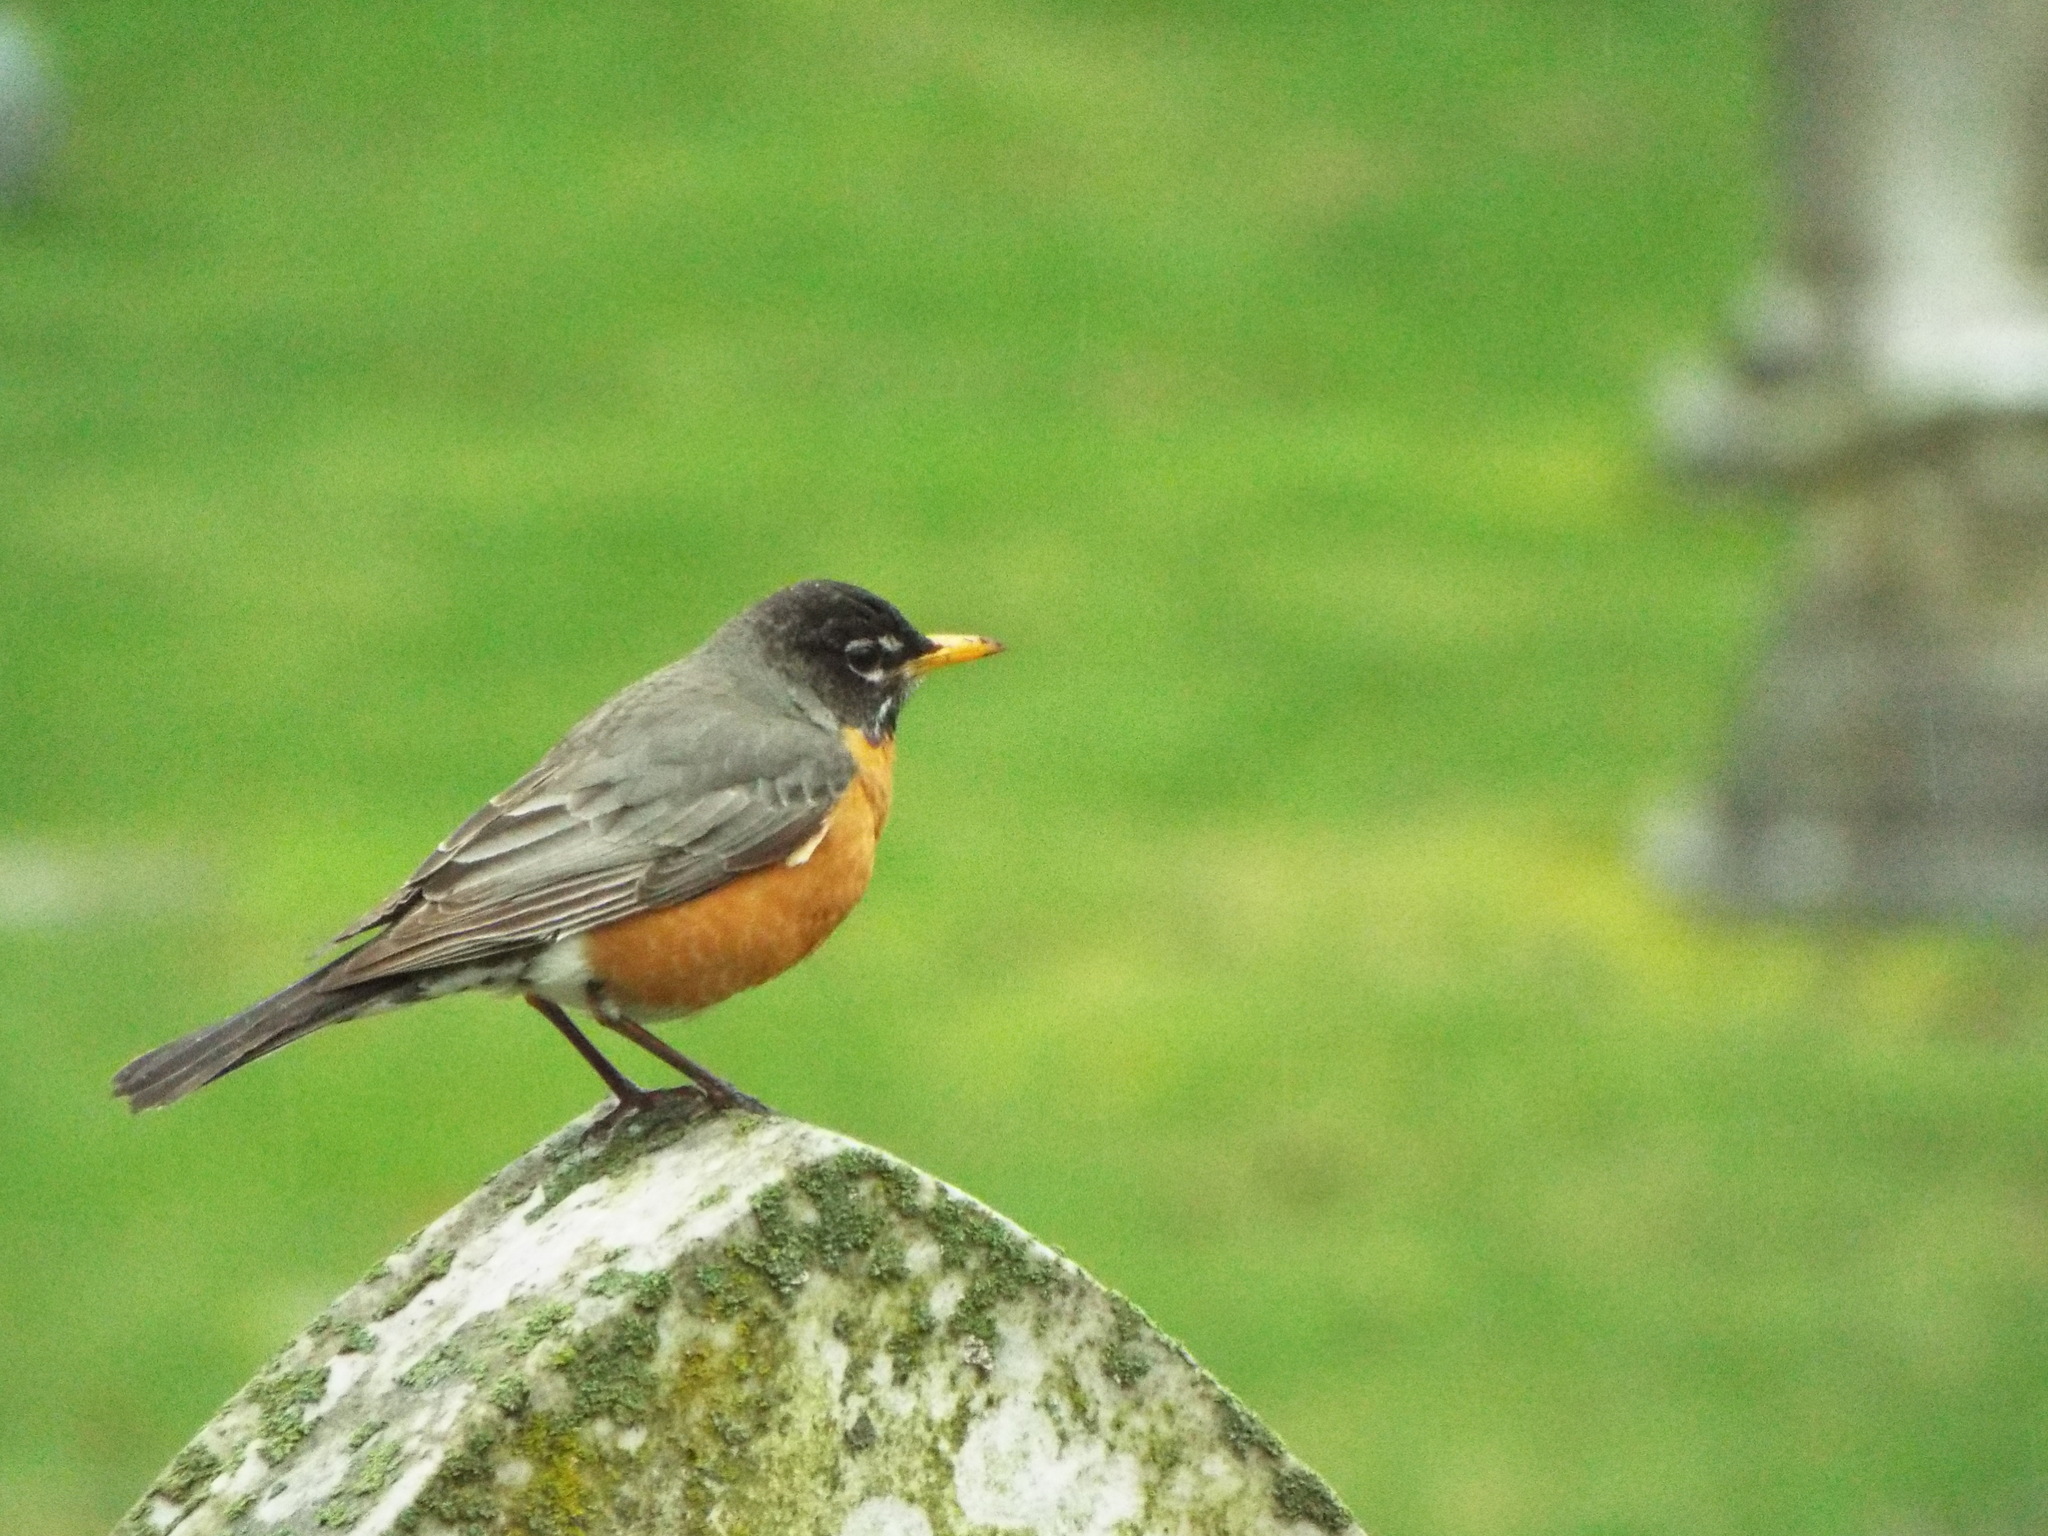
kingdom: Animalia
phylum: Chordata
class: Aves
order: Passeriformes
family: Turdidae
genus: Turdus
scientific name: Turdus migratorius
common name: American robin
